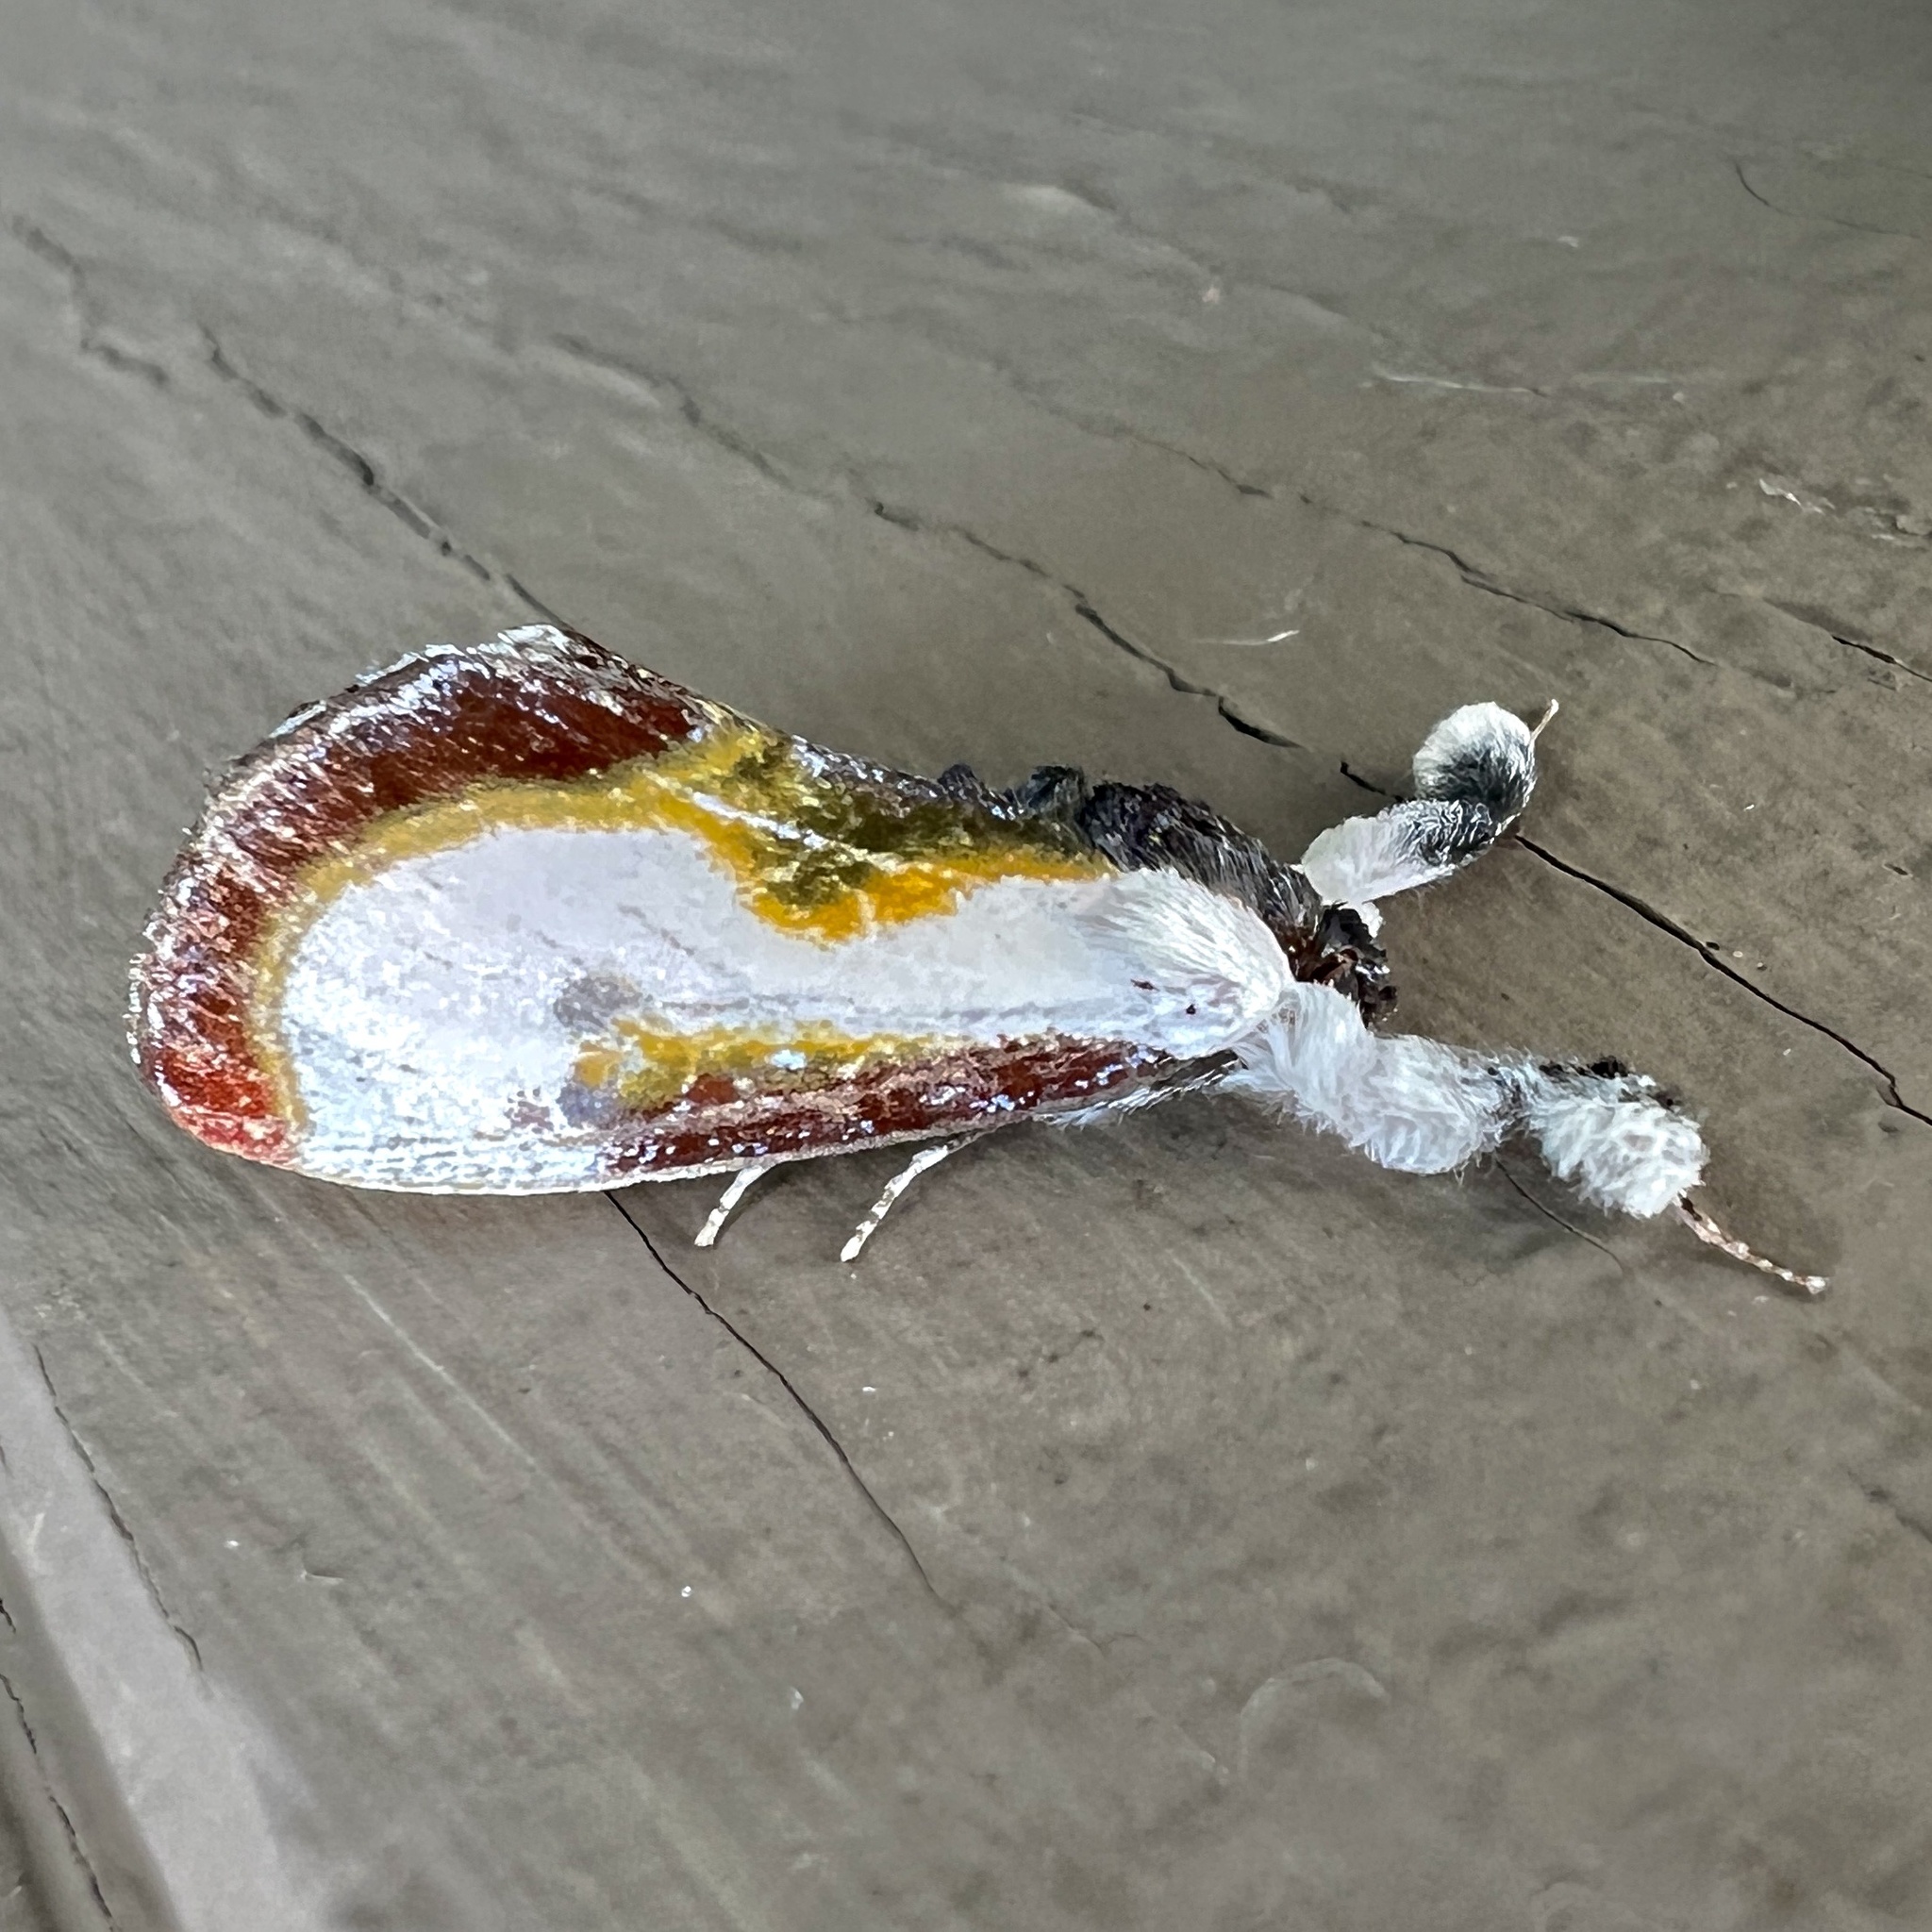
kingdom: Animalia
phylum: Arthropoda
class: Insecta
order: Lepidoptera
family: Noctuidae
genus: Eudryas
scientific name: Eudryas grata
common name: Beautiful wood-nymph
